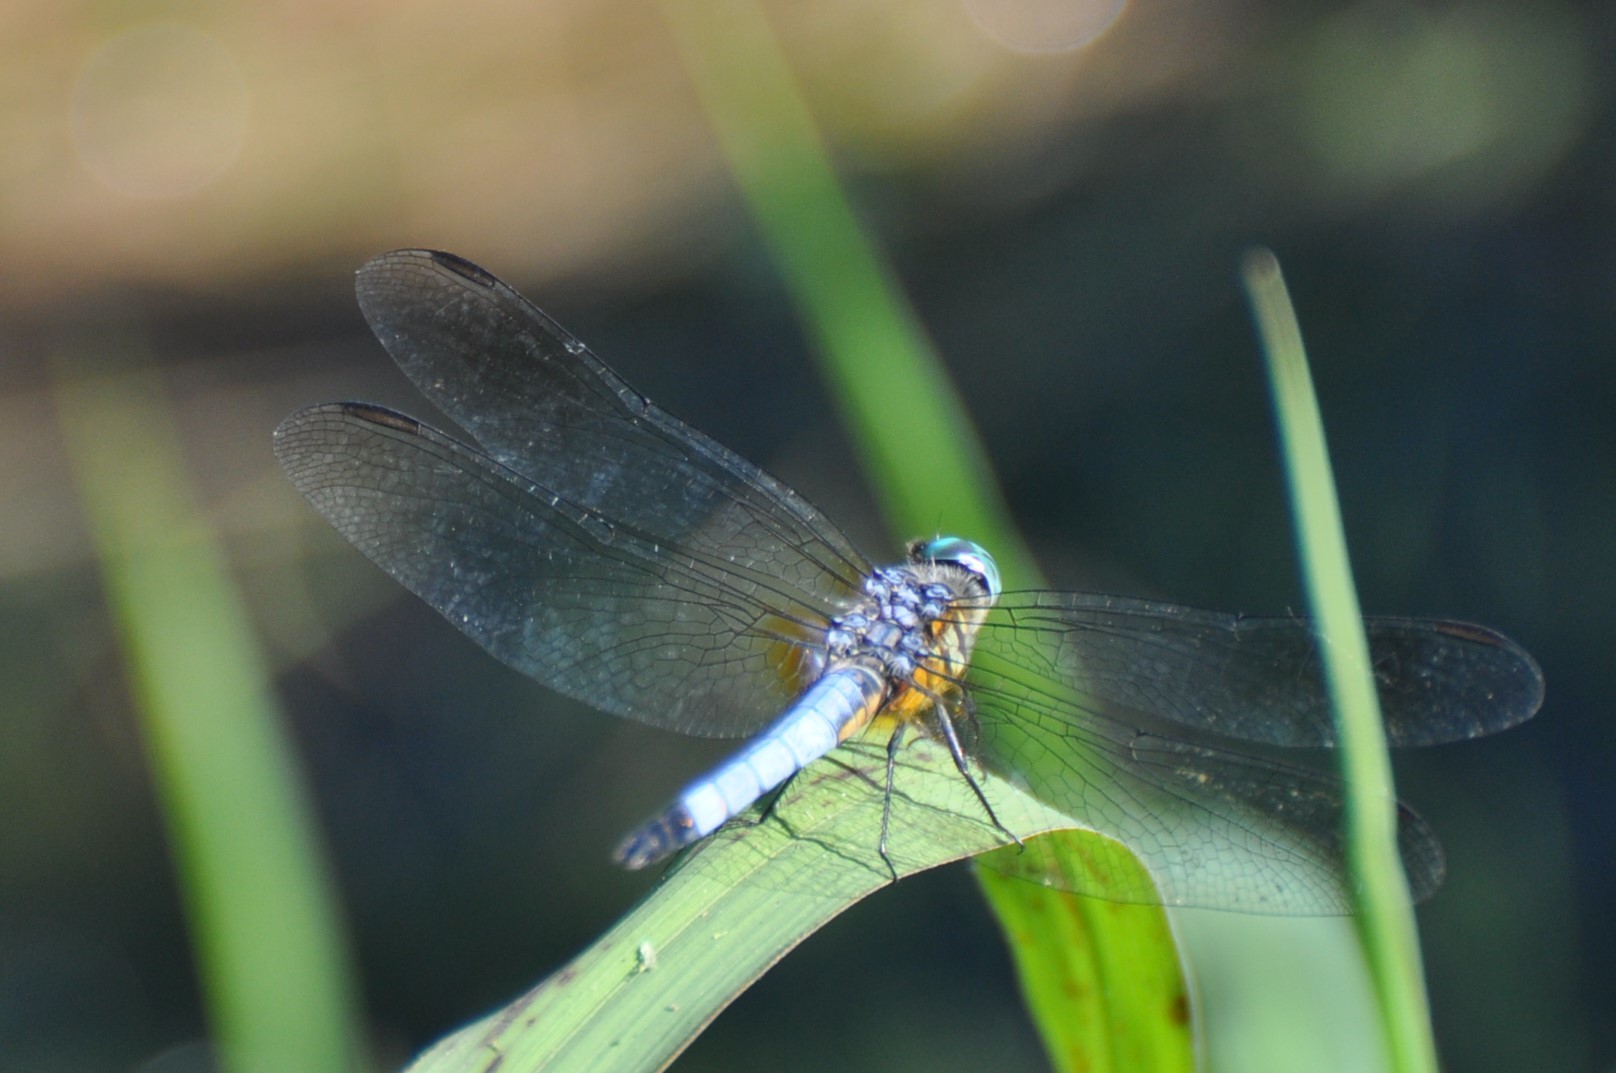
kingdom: Animalia
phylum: Arthropoda
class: Insecta
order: Odonata
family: Libellulidae
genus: Pachydiplax
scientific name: Pachydiplax longipennis
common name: Blue dasher
